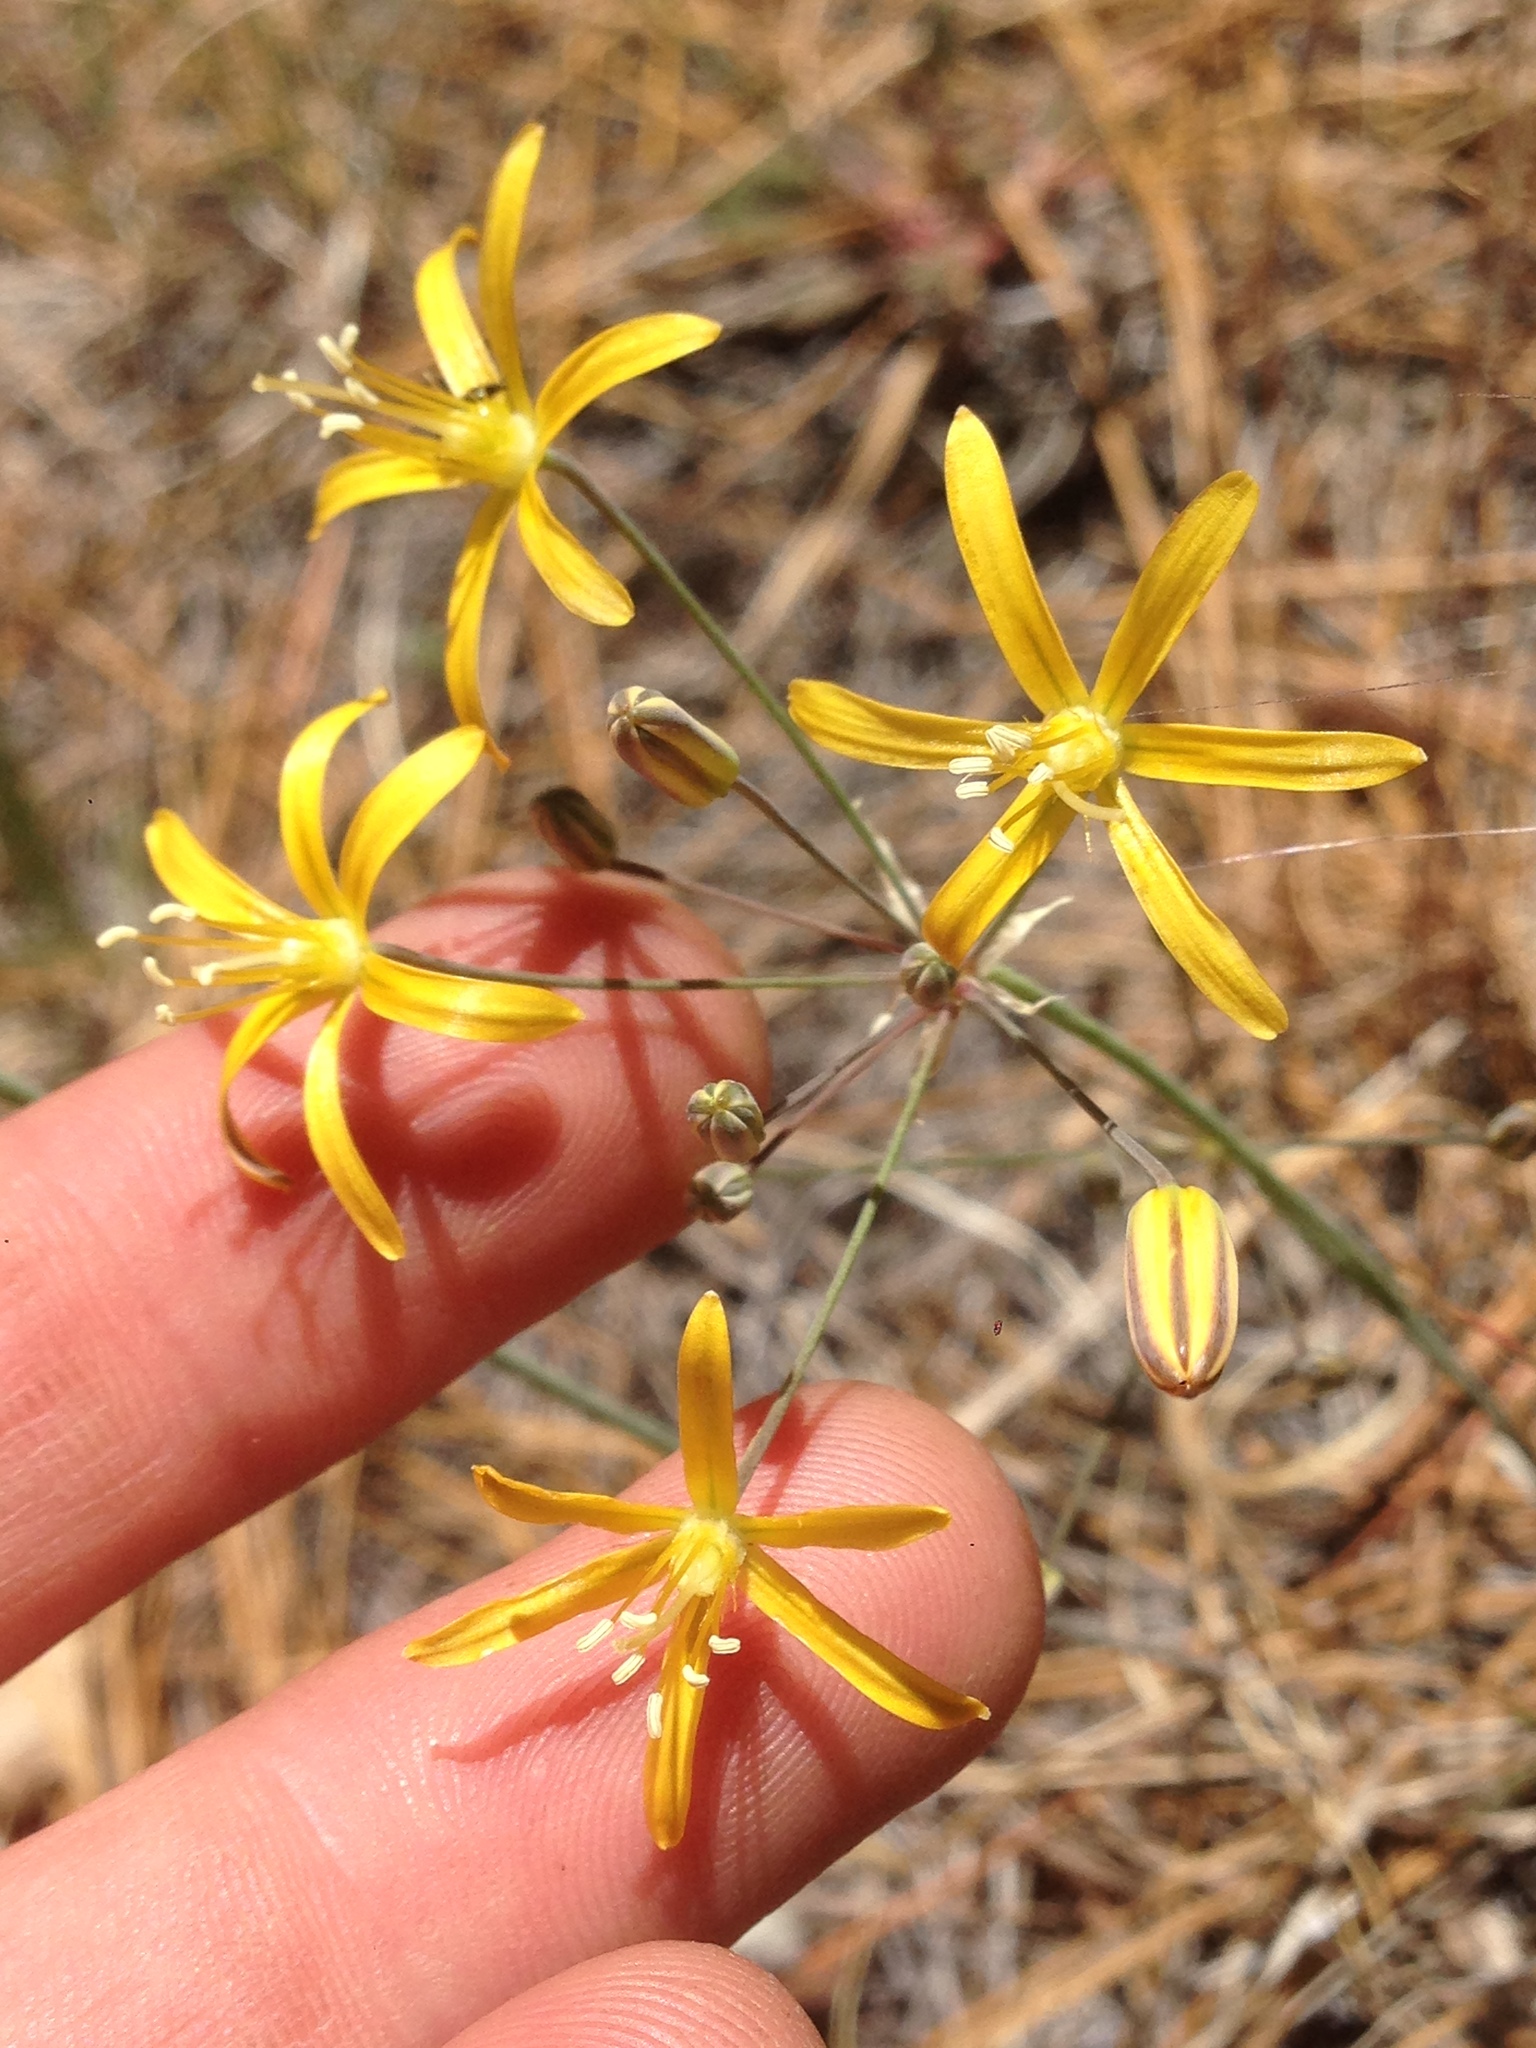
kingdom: Plantae
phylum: Tracheophyta
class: Liliopsida
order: Asparagales
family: Asparagaceae
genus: Bloomeria
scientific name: Bloomeria crocea
